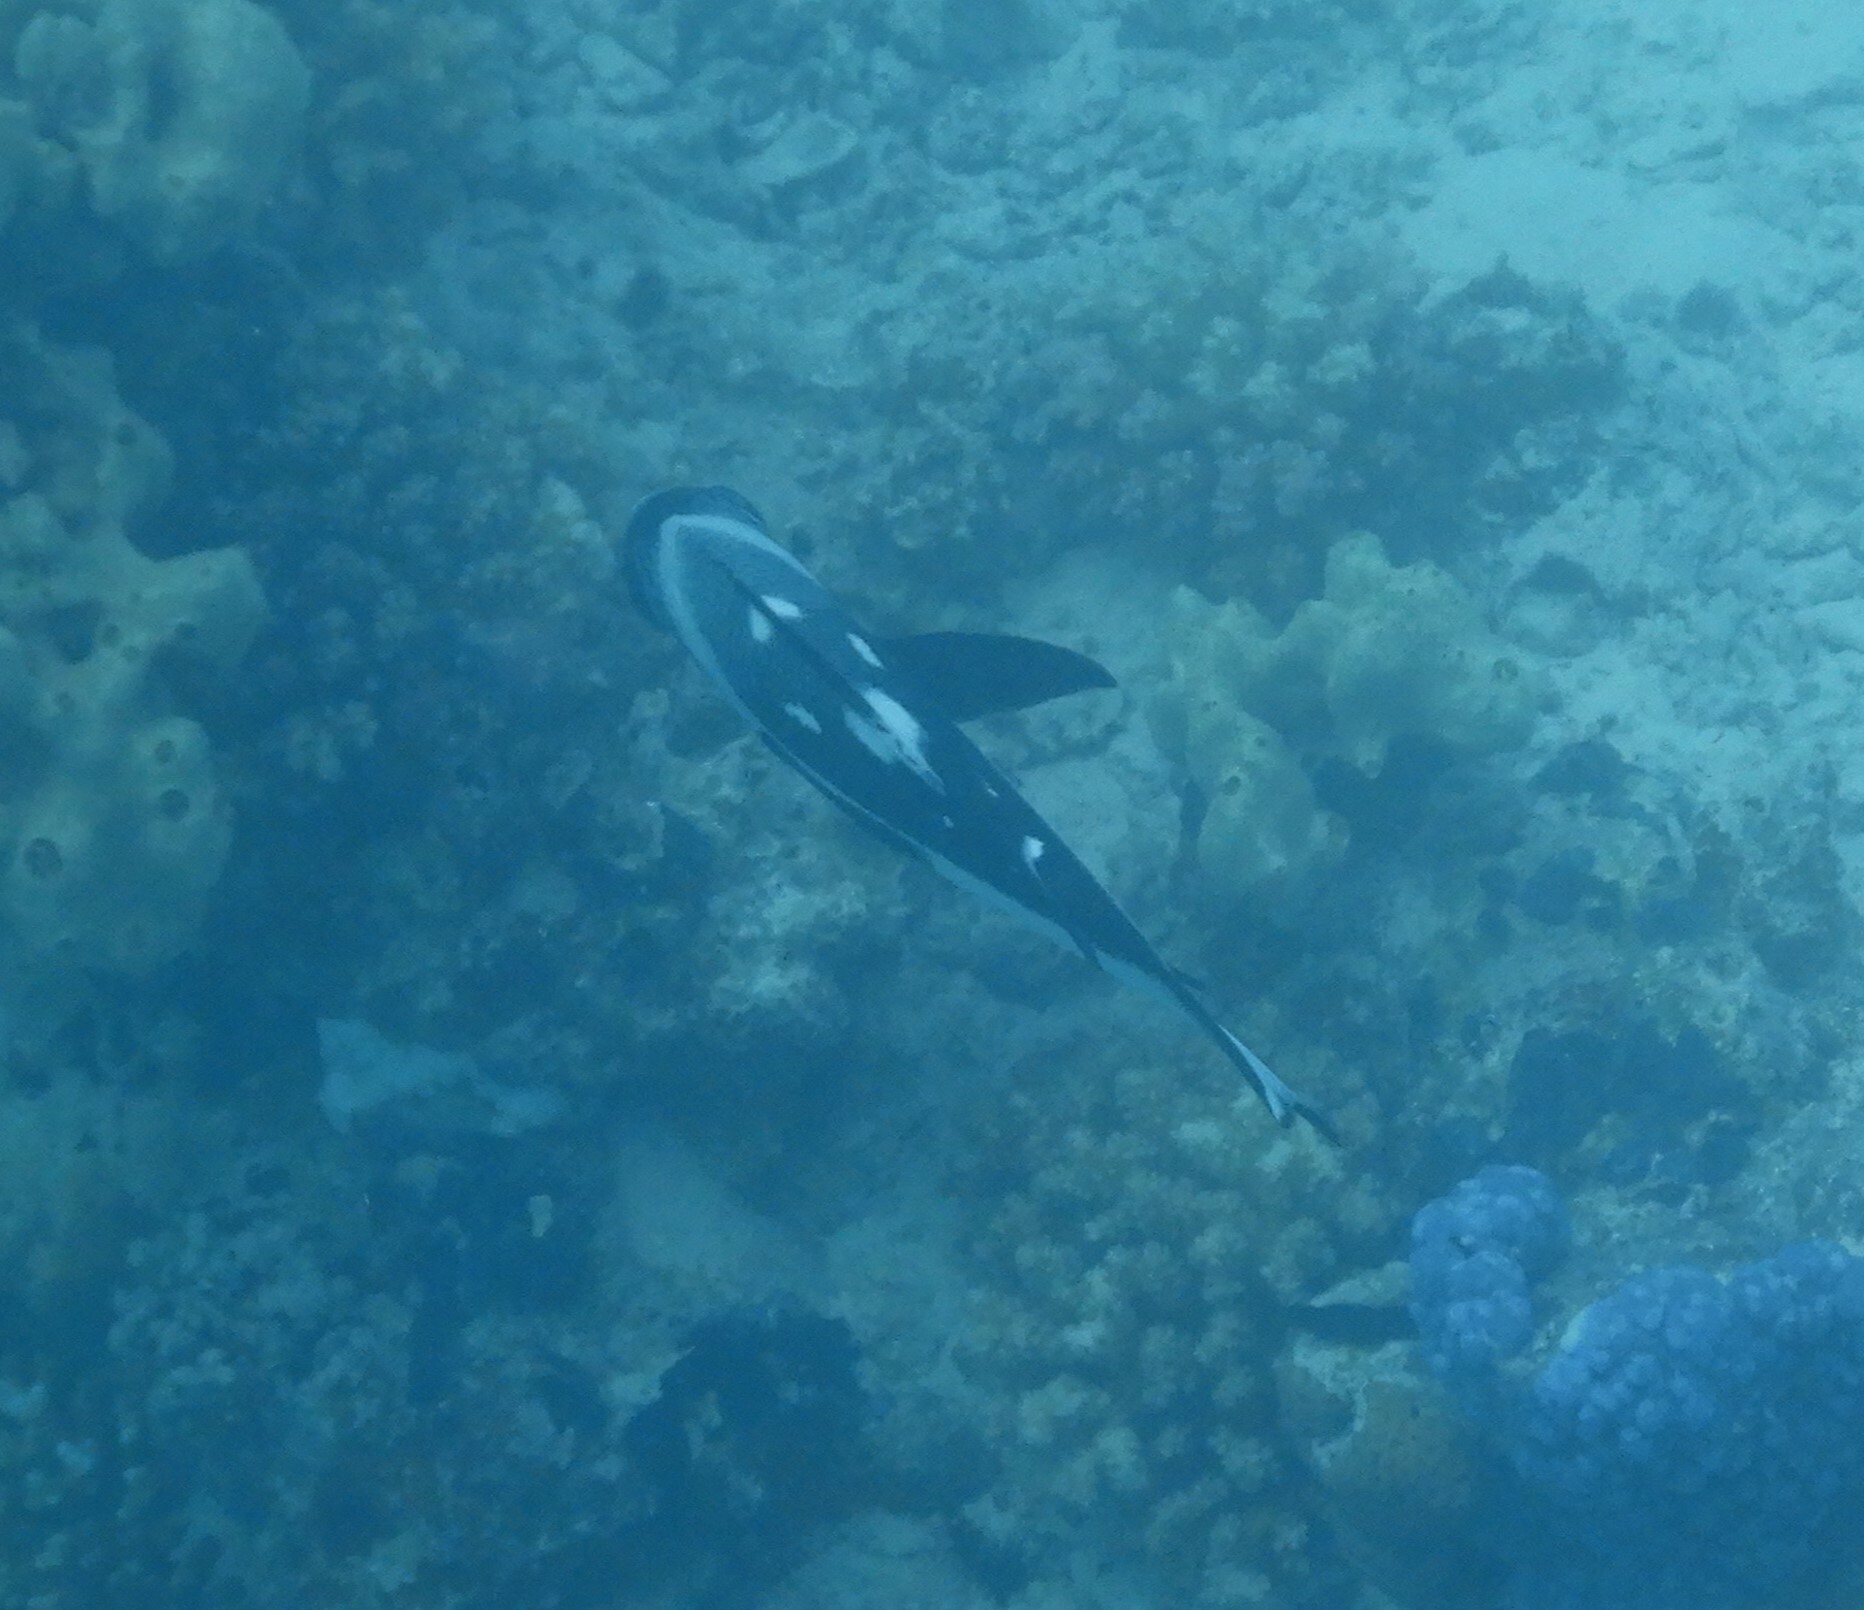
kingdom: Animalia
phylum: Chordata
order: Perciformes
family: Lutjanidae
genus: Macolor
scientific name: Macolor niger
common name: Black snapper
